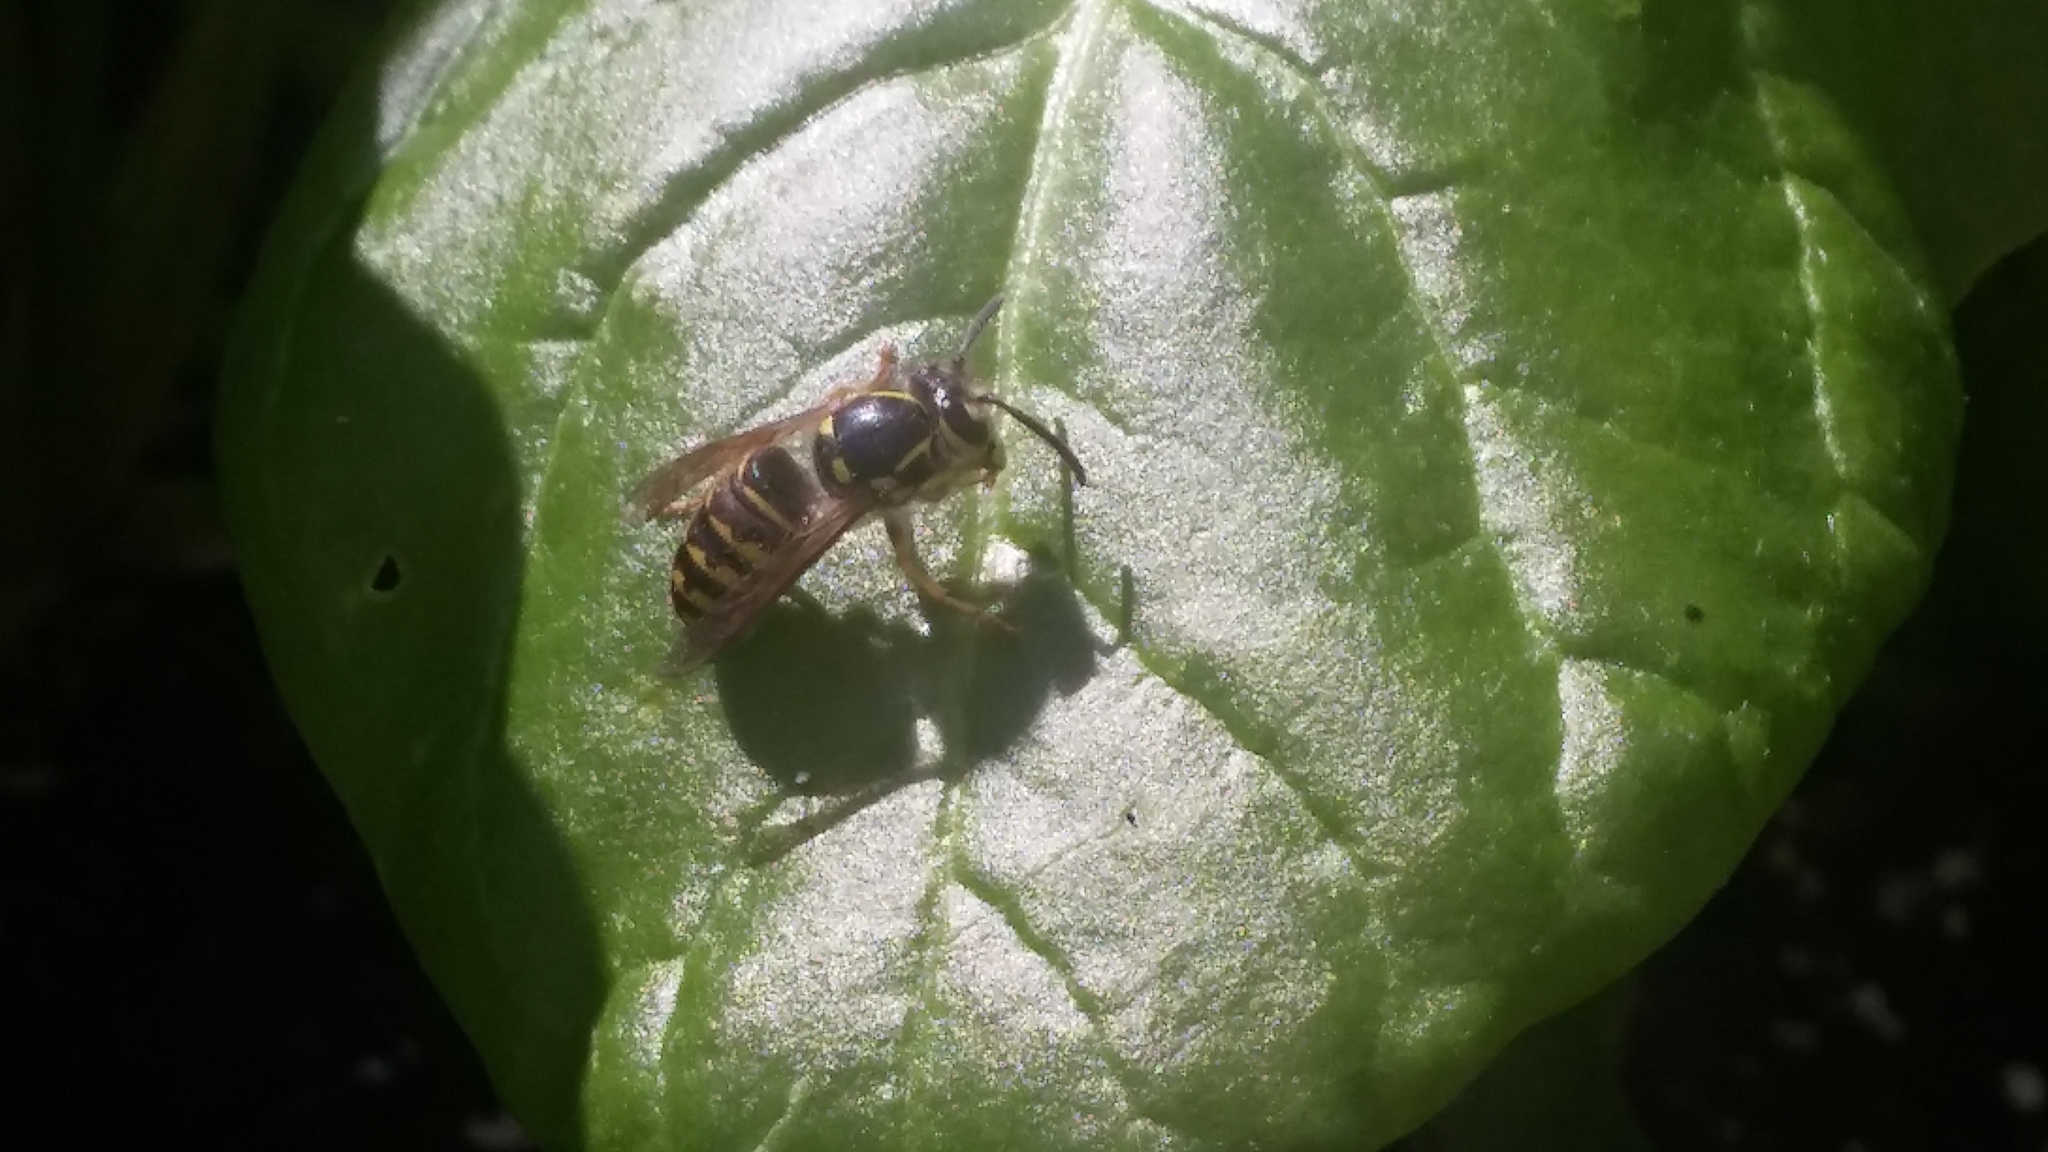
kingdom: Animalia
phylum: Arthropoda
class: Insecta
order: Hymenoptera
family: Vespidae
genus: Dolichovespula
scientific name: Dolichovespula arenaria
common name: Aerial yellowjacket
